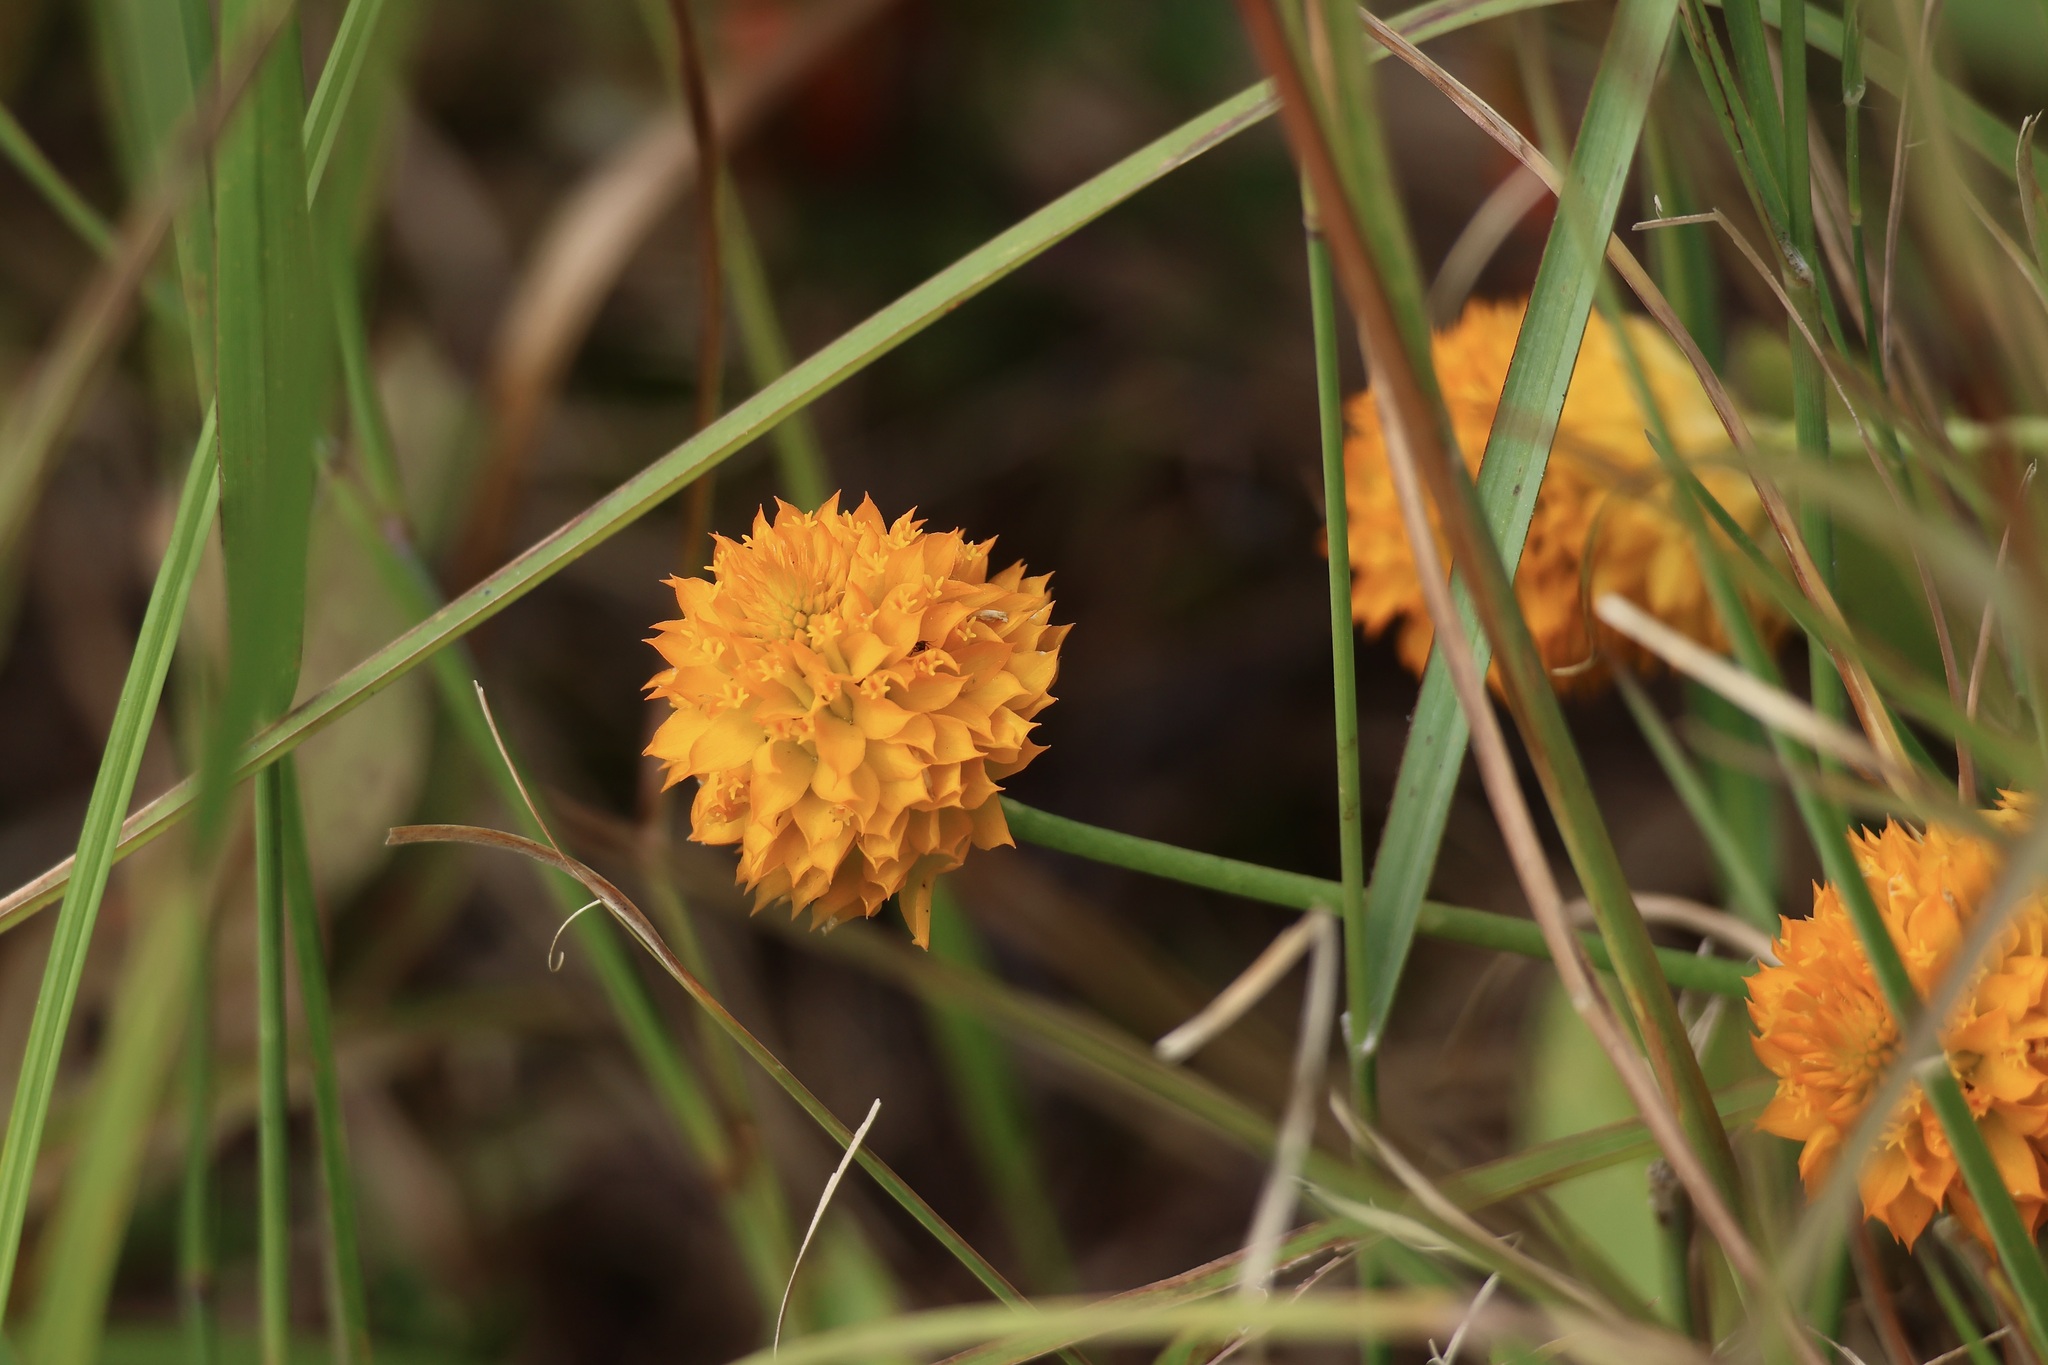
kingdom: Plantae
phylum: Tracheophyta
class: Magnoliopsida
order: Fabales
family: Polygalaceae
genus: Polygala
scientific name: Polygala lutea
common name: Orange milkwort
